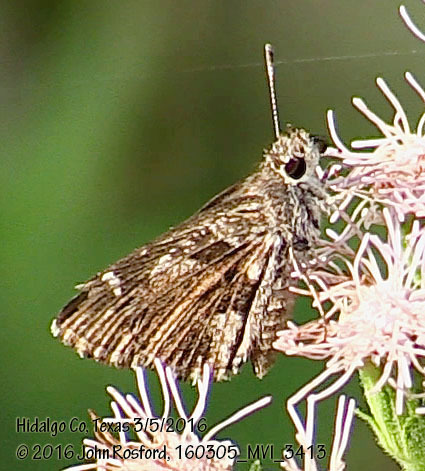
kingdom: Animalia
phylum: Arthropoda
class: Insecta
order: Lepidoptera
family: Hesperiidae
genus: Mastor
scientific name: Mastor nysa
